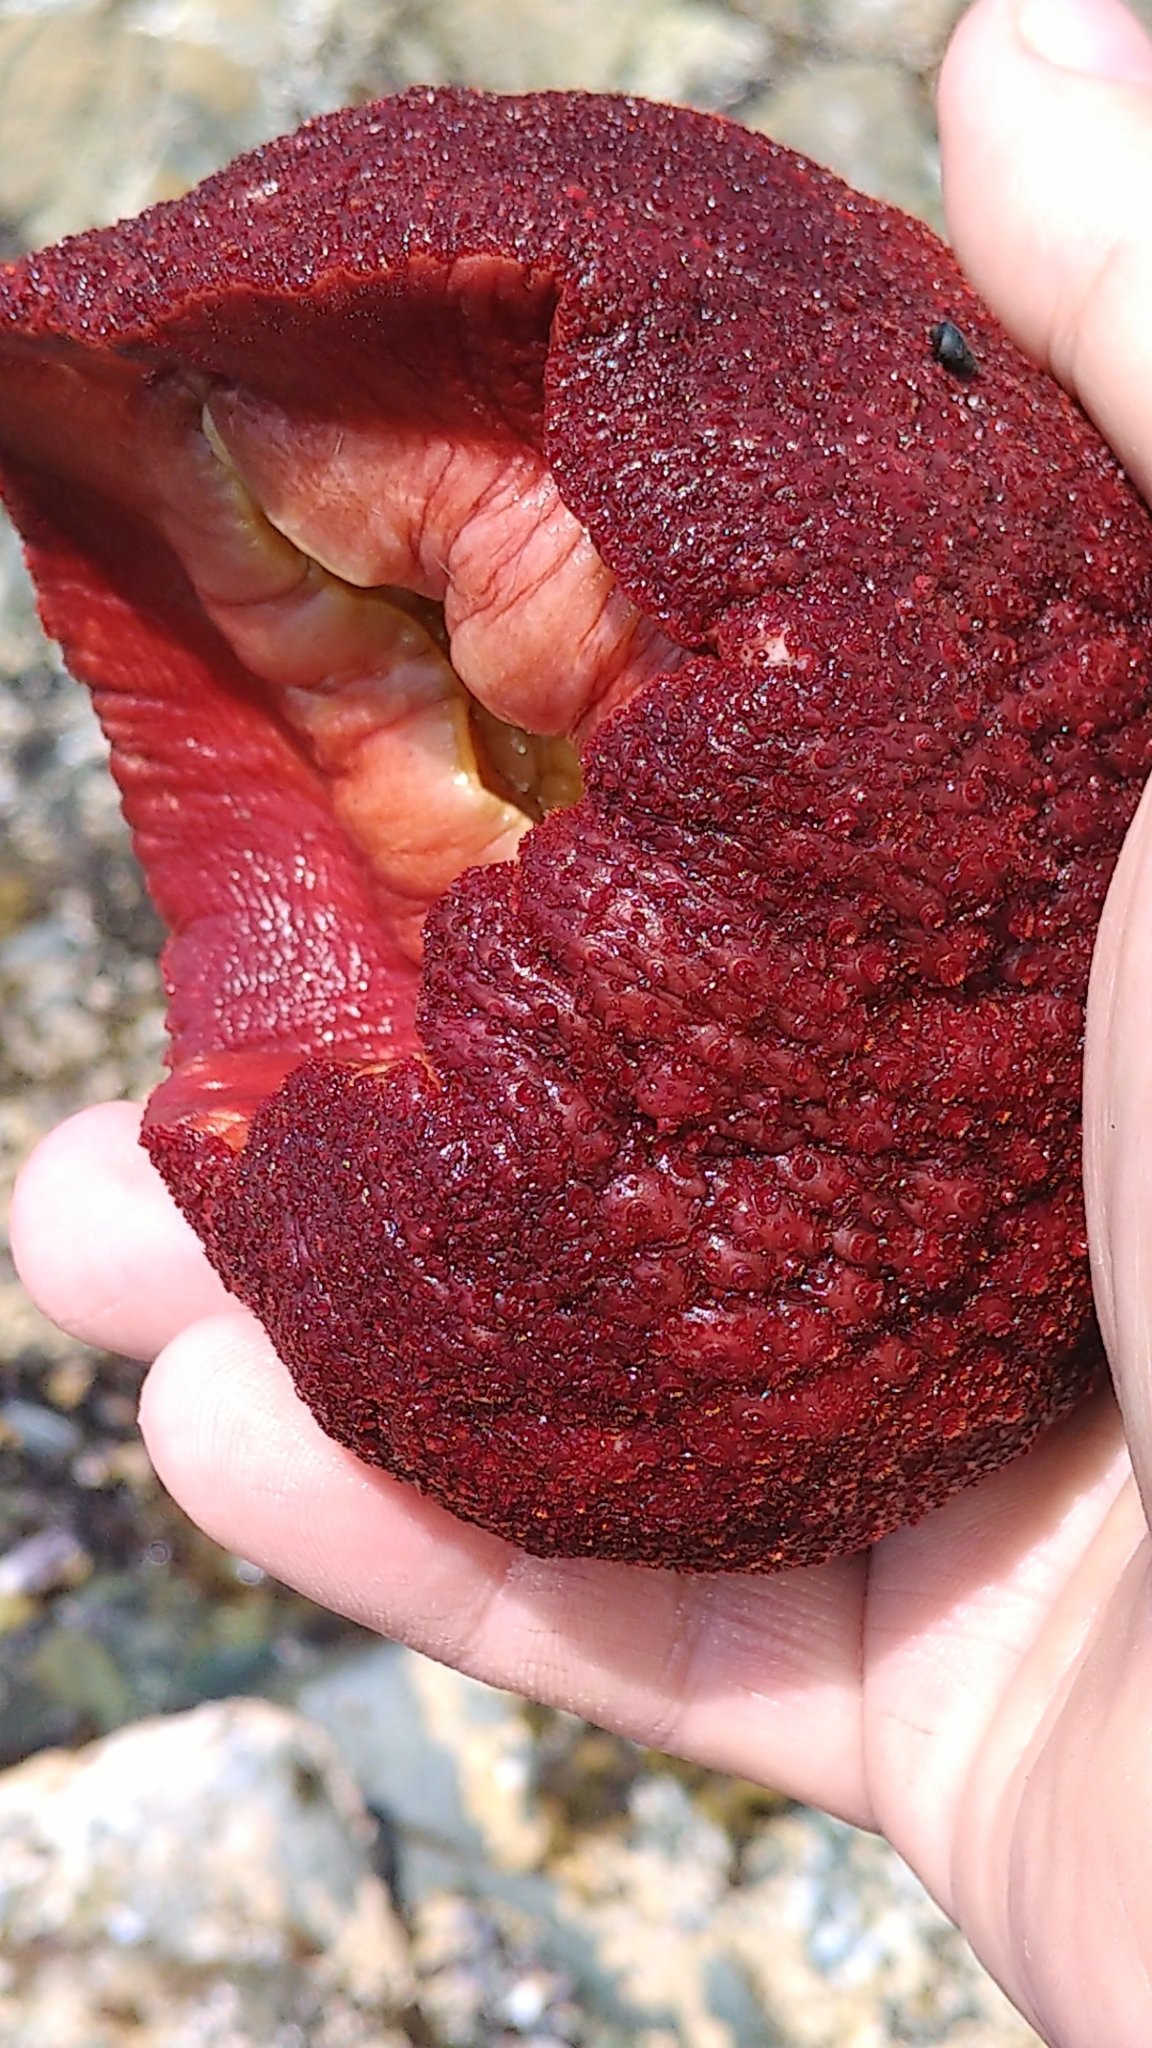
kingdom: Animalia
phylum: Mollusca
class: Polyplacophora
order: Chitonida
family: Acanthochitonidae
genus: Cryptochiton
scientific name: Cryptochiton stelleri
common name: Giant pacific chiton
